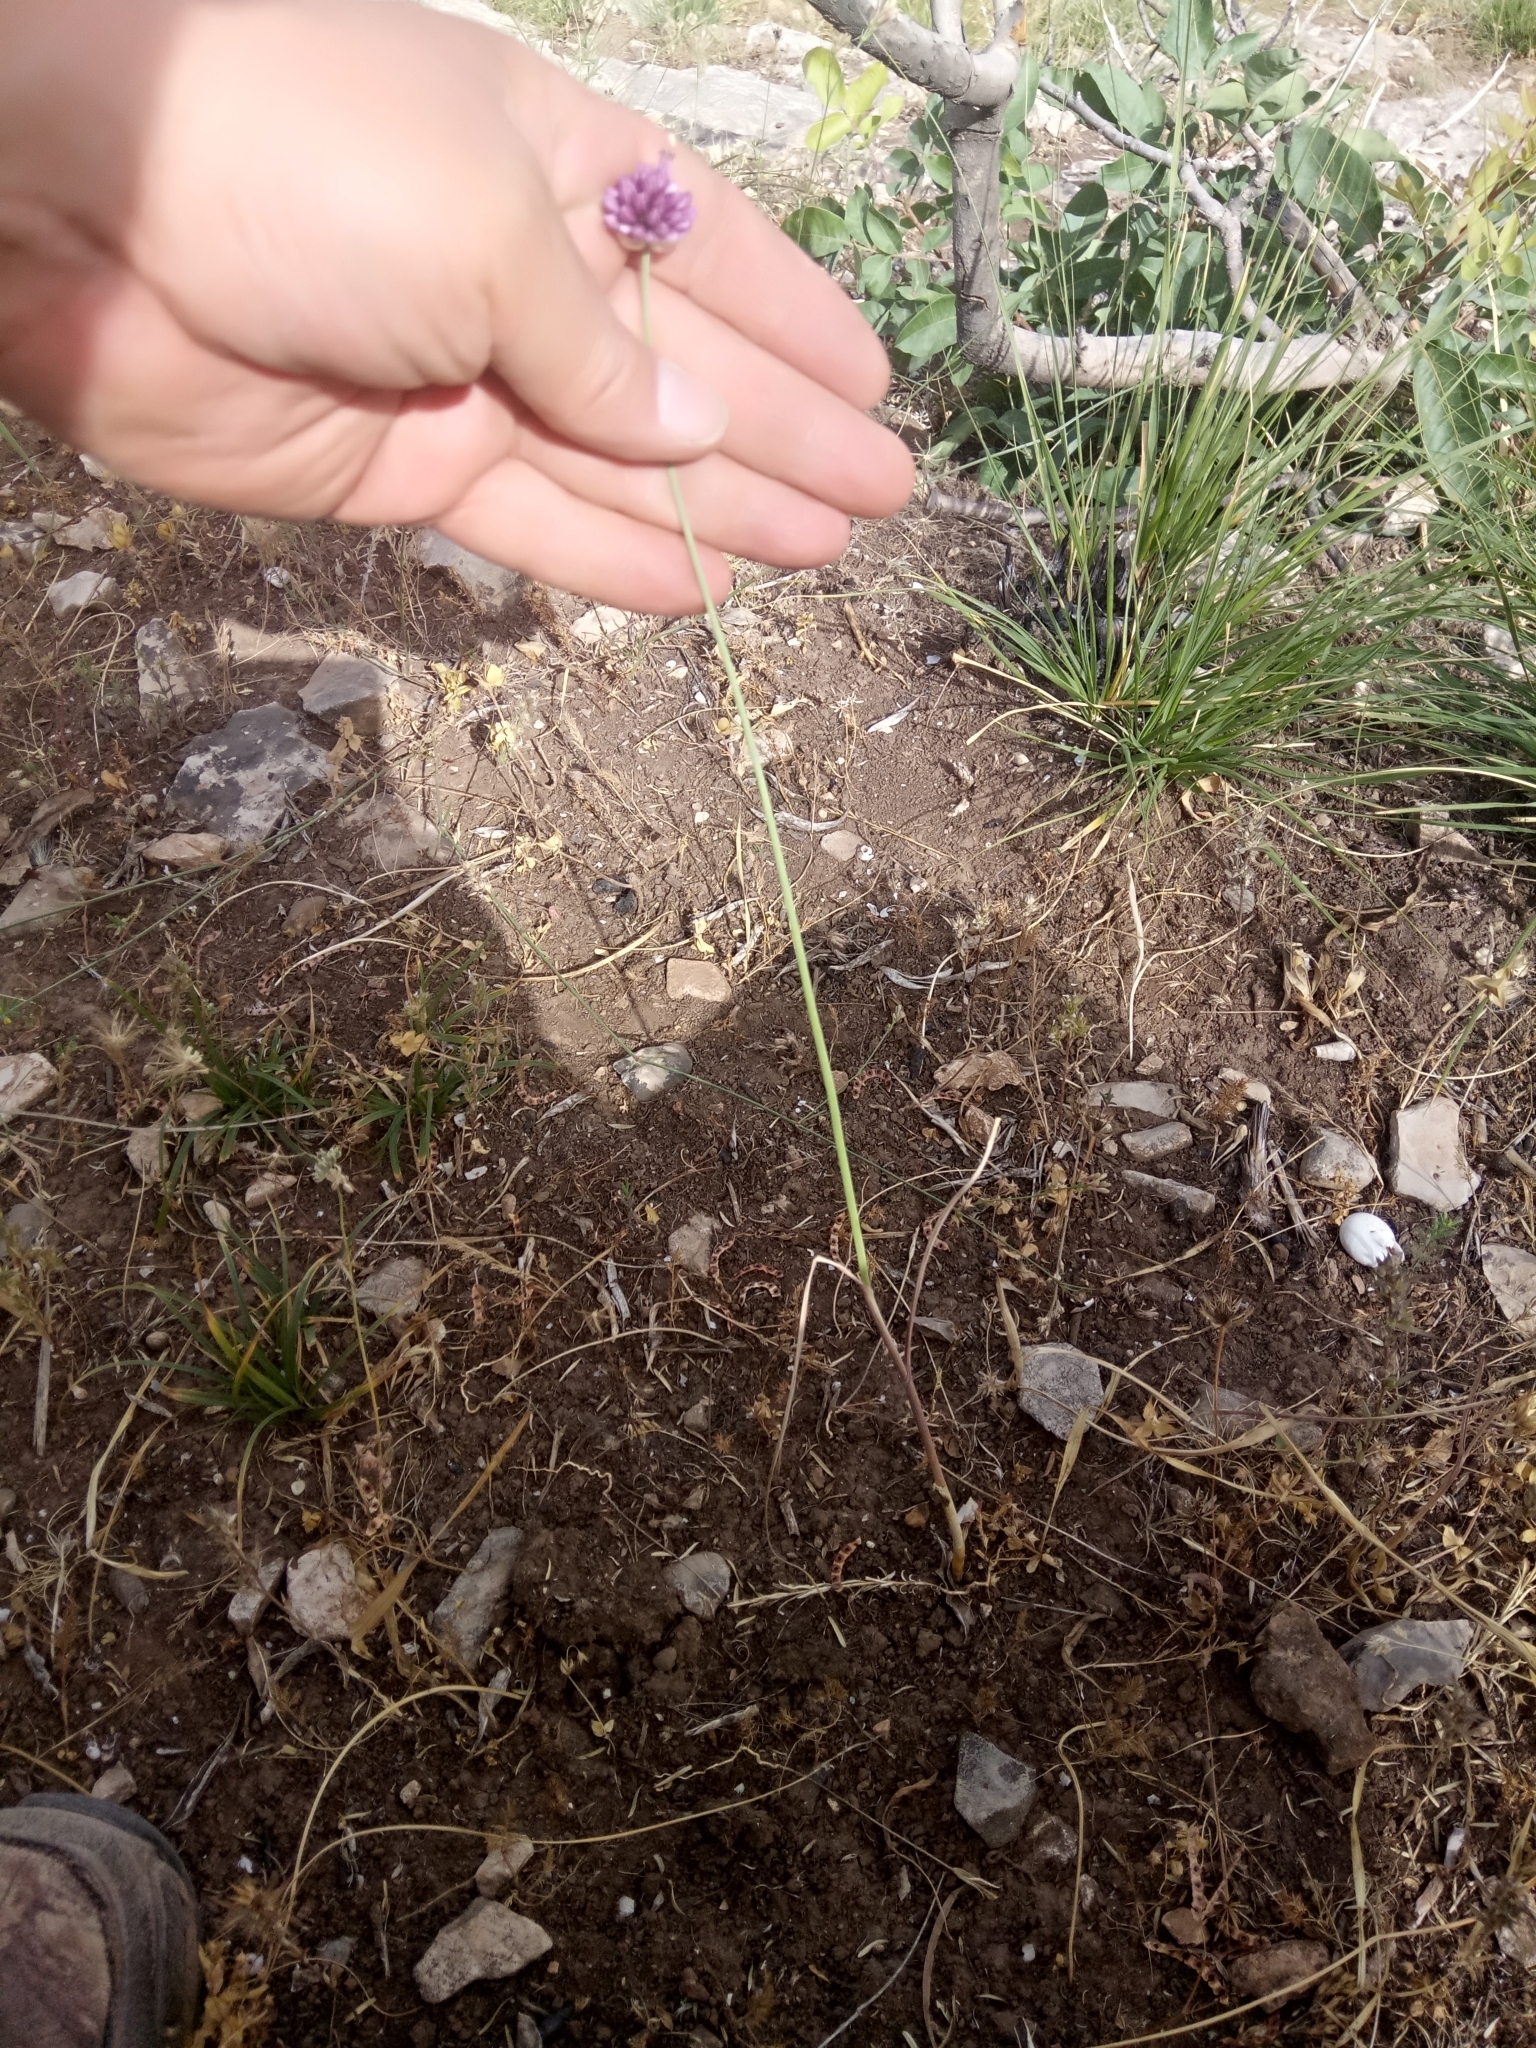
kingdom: Plantae
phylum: Tracheophyta
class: Liliopsida
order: Asparagales
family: Amaryllidaceae
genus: Allium
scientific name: Allium ebusitanum
